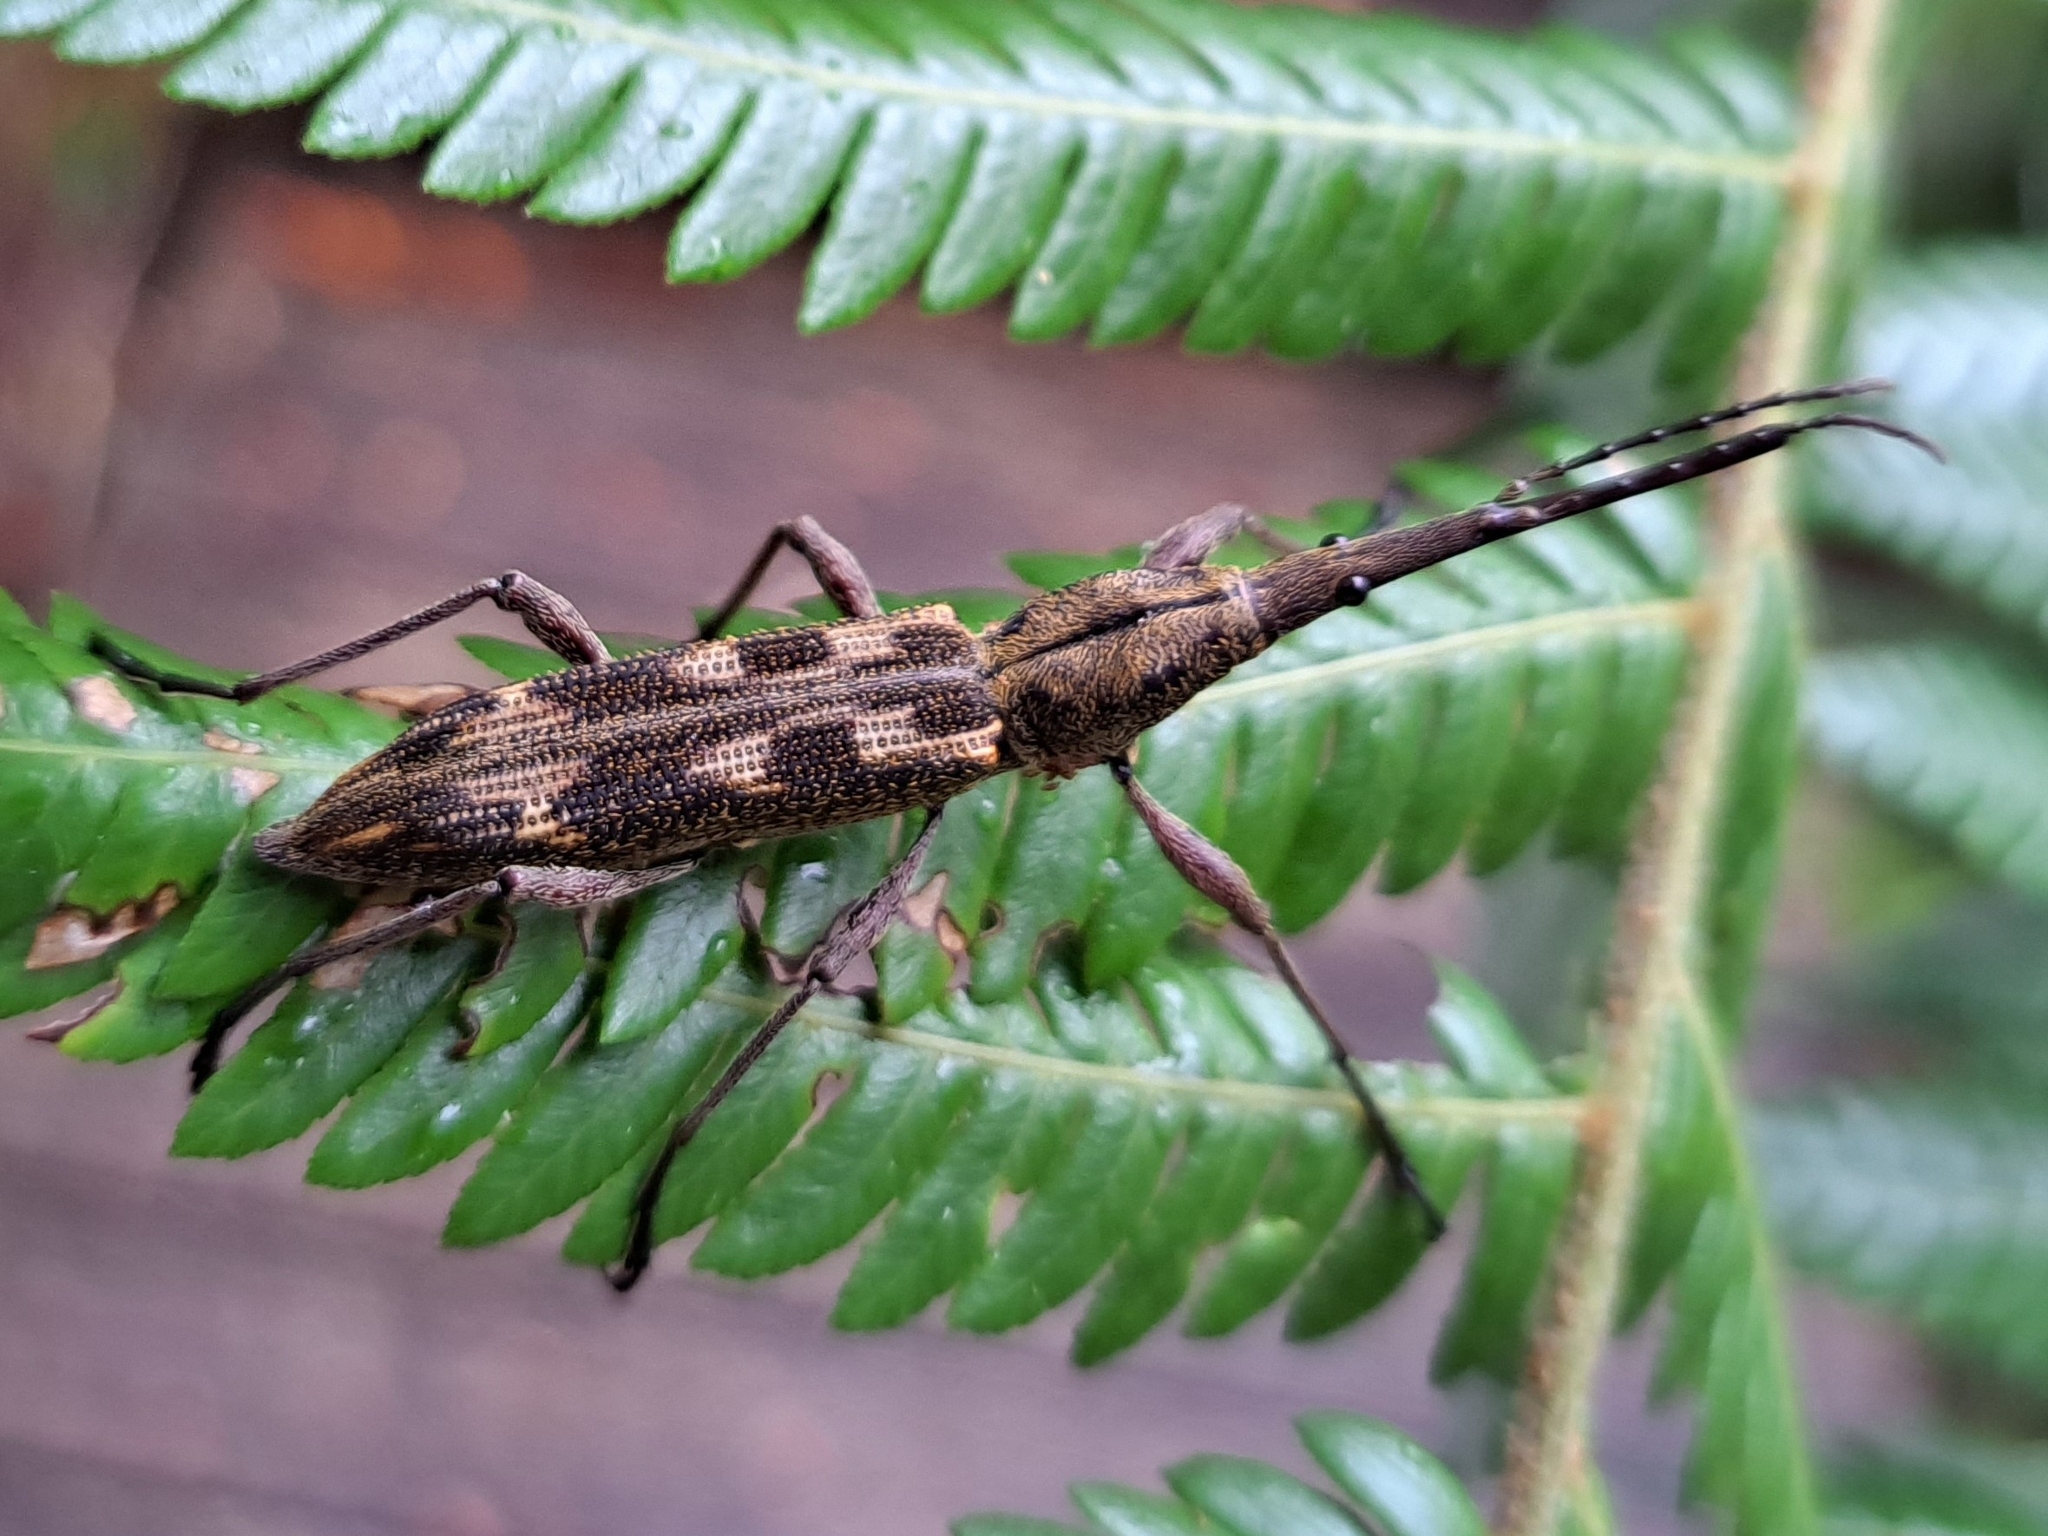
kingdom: Animalia
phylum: Arthropoda
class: Insecta
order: Coleoptera
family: Brentidae
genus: Lasiorhynchus
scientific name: Lasiorhynchus barbicornis
